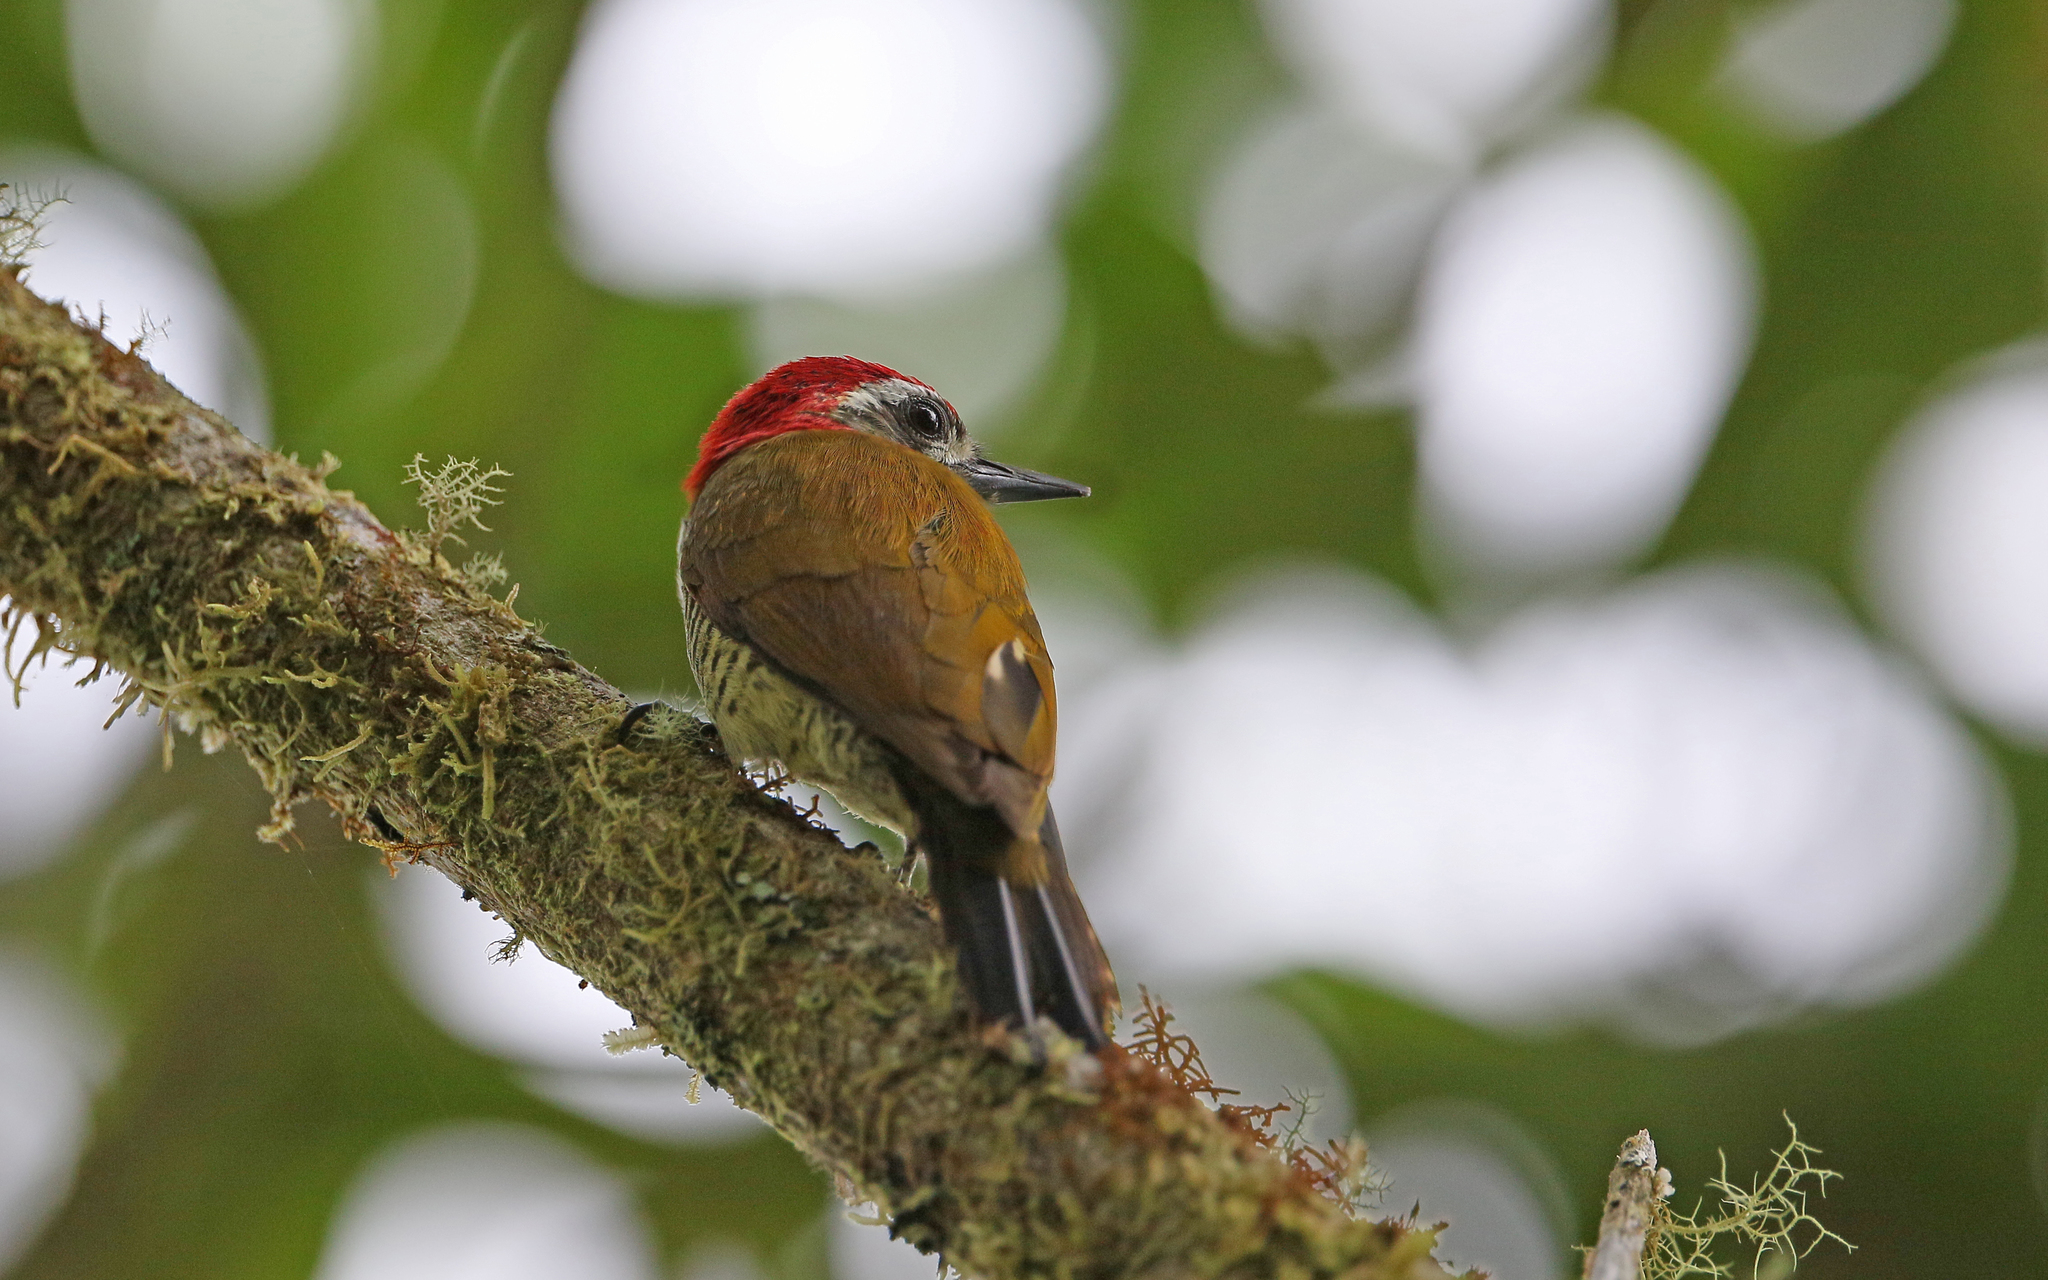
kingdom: Animalia
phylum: Chordata
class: Aves
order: Piciformes
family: Picidae
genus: Veniliornis
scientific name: Veniliornis dignus
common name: Yellow-vented woodpecker
